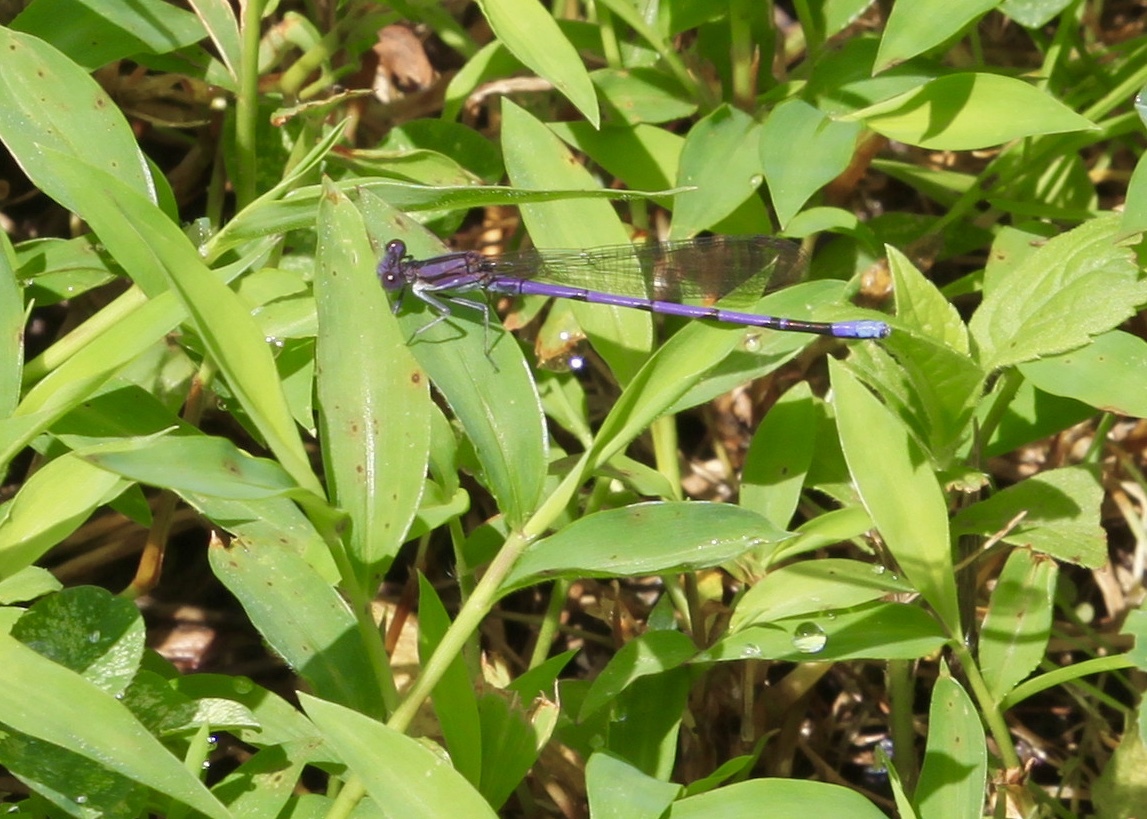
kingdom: Animalia
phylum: Arthropoda
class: Insecta
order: Odonata
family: Coenagrionidae
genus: Argia
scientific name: Argia fumipennis
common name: Variable dancer
